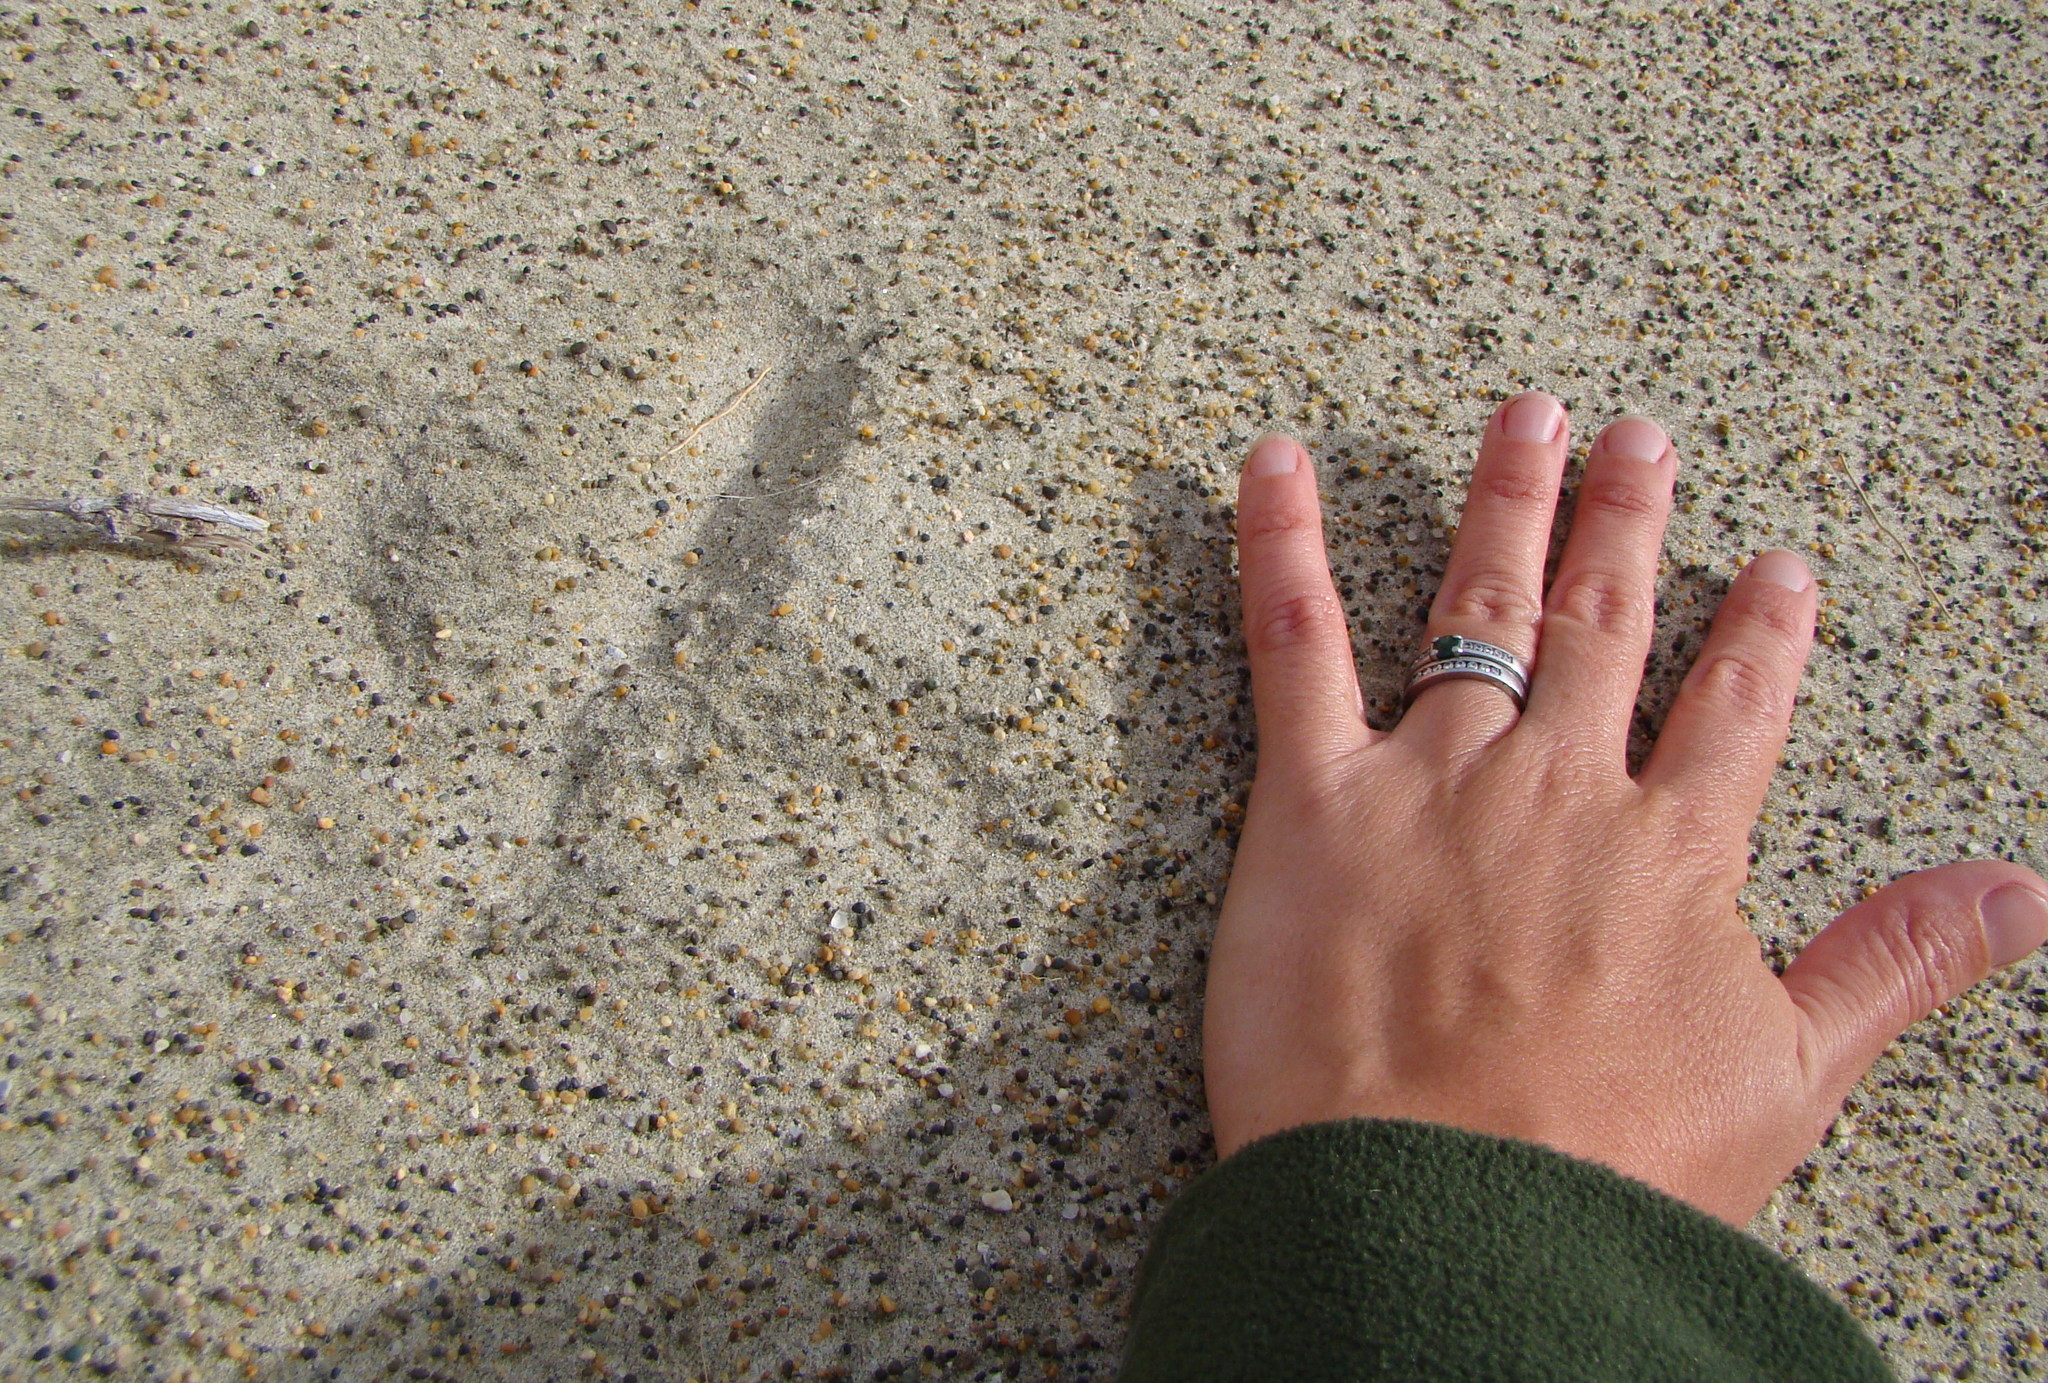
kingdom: Animalia
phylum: Chordata
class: Aves
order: Apterygiformes
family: Apterygidae
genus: Apteryx
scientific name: Apteryx australis
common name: Southern brown kiwi
